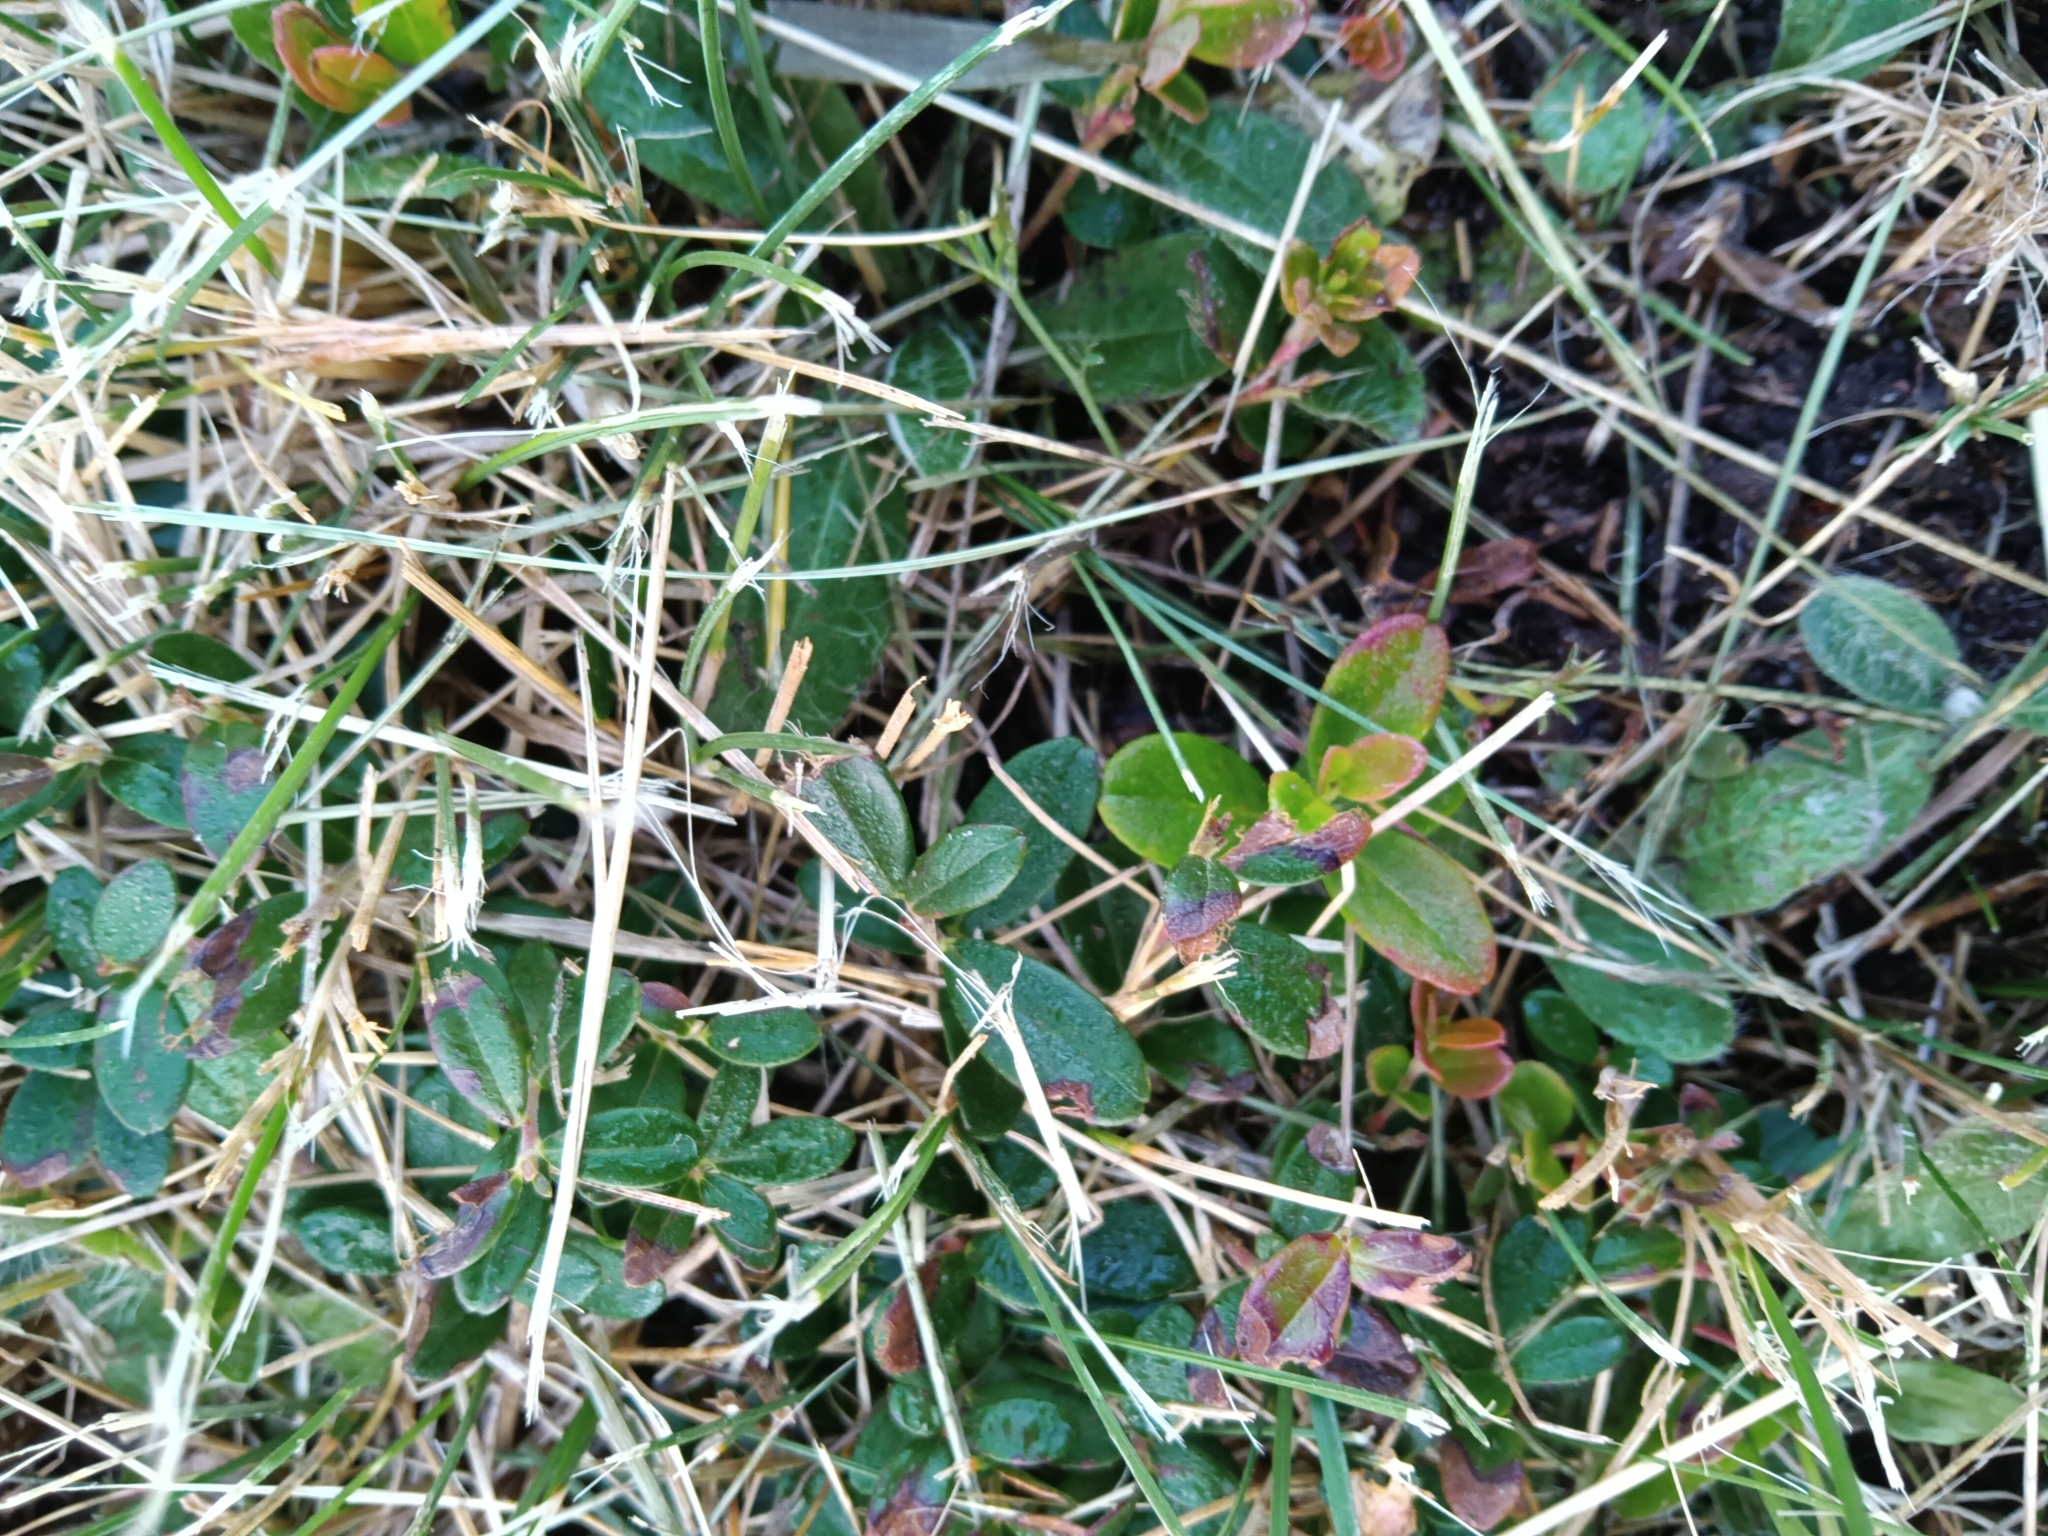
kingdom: Plantae
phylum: Tracheophyta
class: Magnoliopsida
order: Ericales
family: Ericaceae
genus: Vaccinium
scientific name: Vaccinium vitis-idaea
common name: Cowberry
